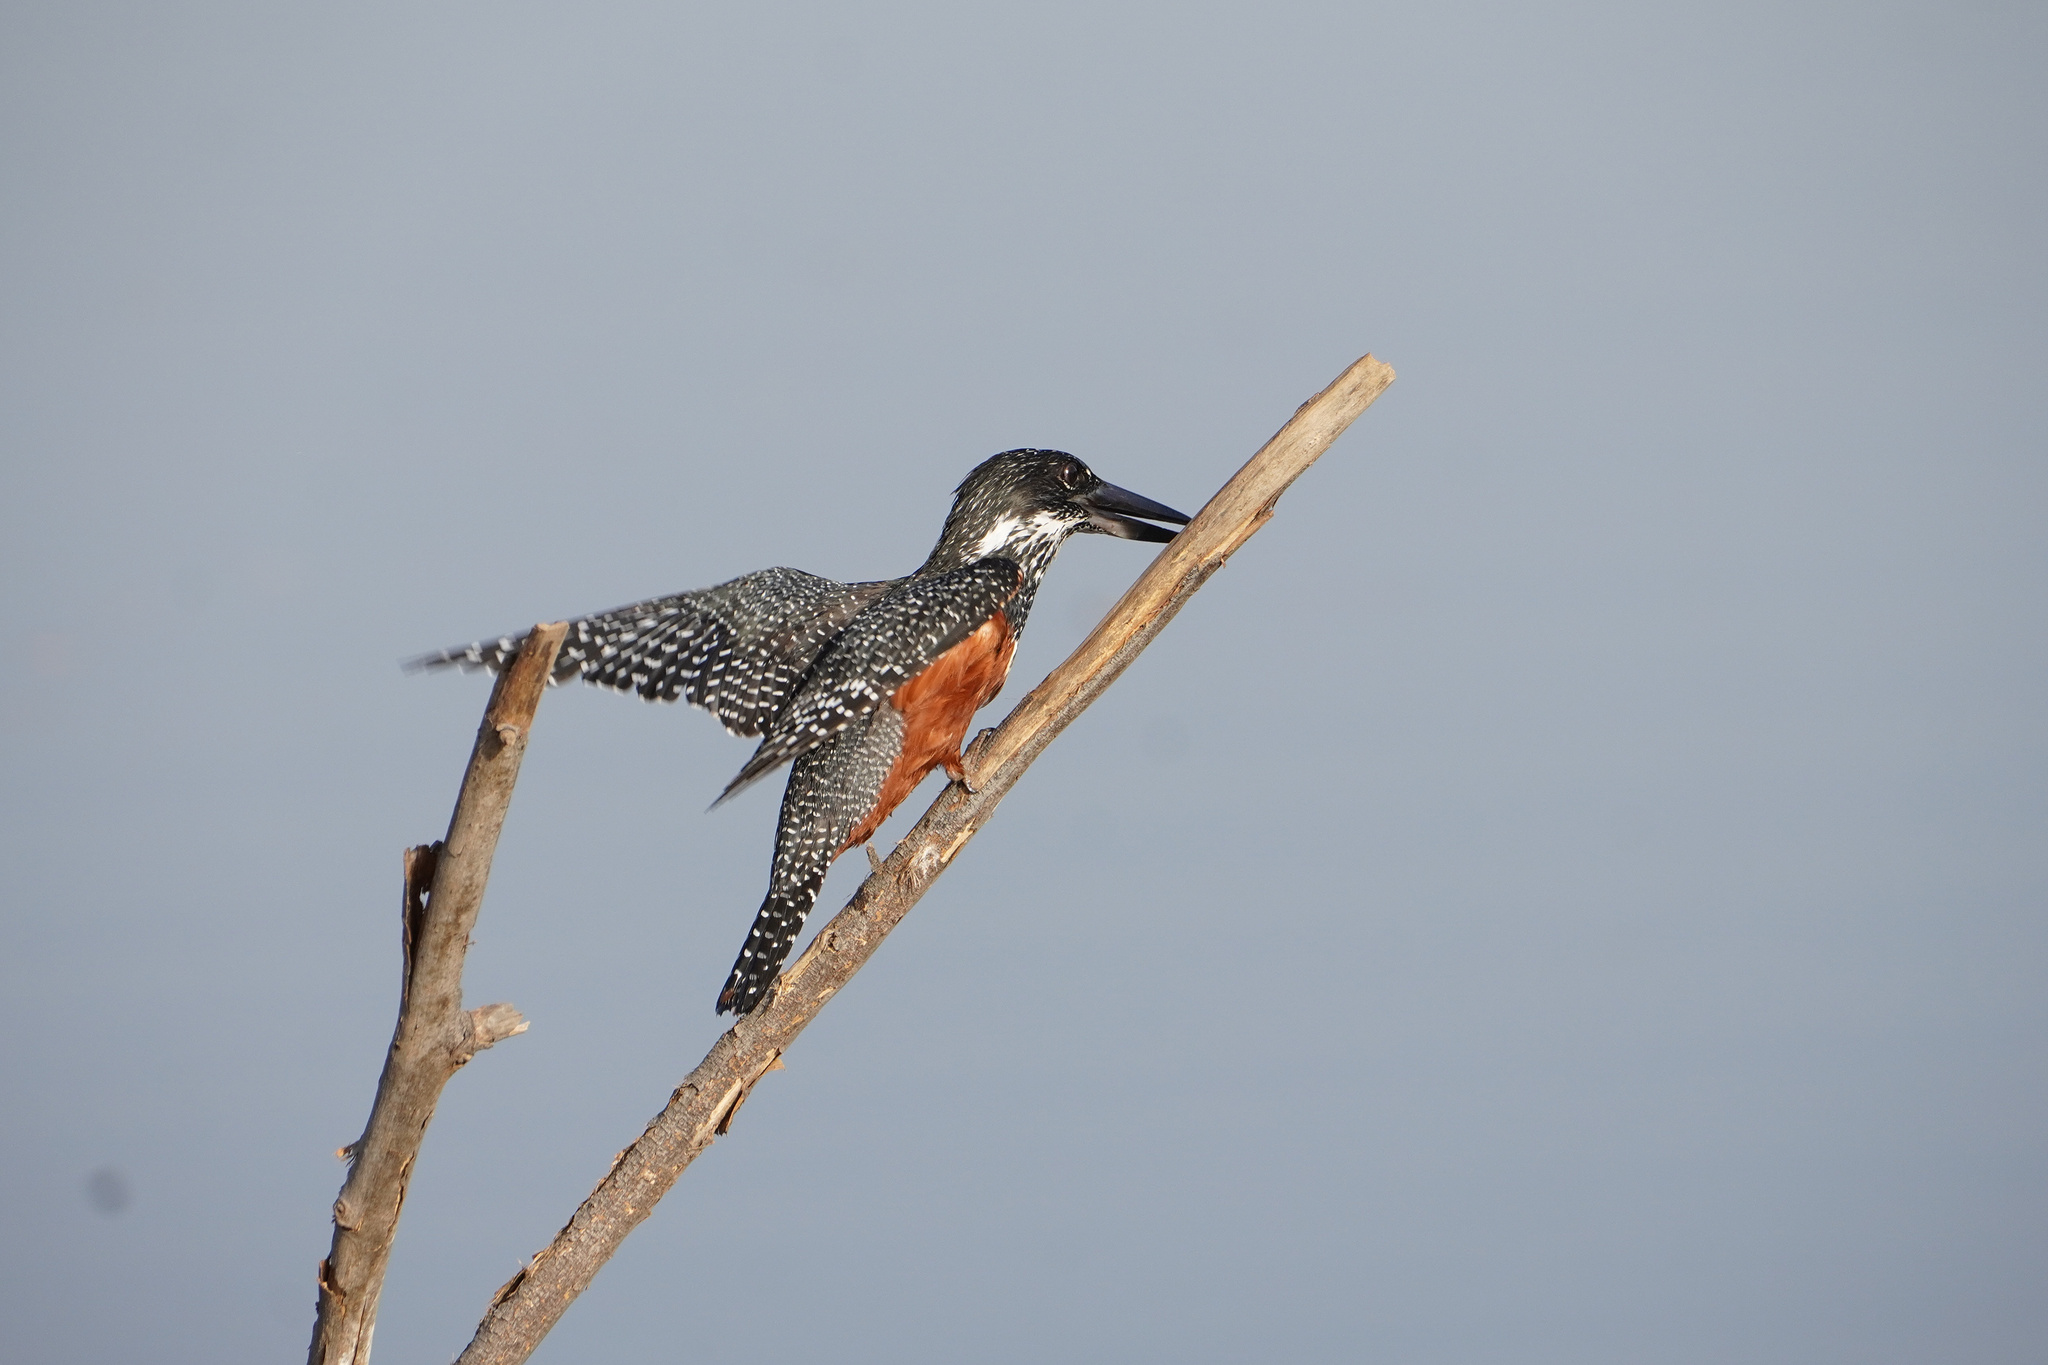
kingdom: Animalia
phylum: Chordata
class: Aves
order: Coraciiformes
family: Alcedinidae
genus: Megaceryle
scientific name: Megaceryle maxima
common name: Giant kingfisher
